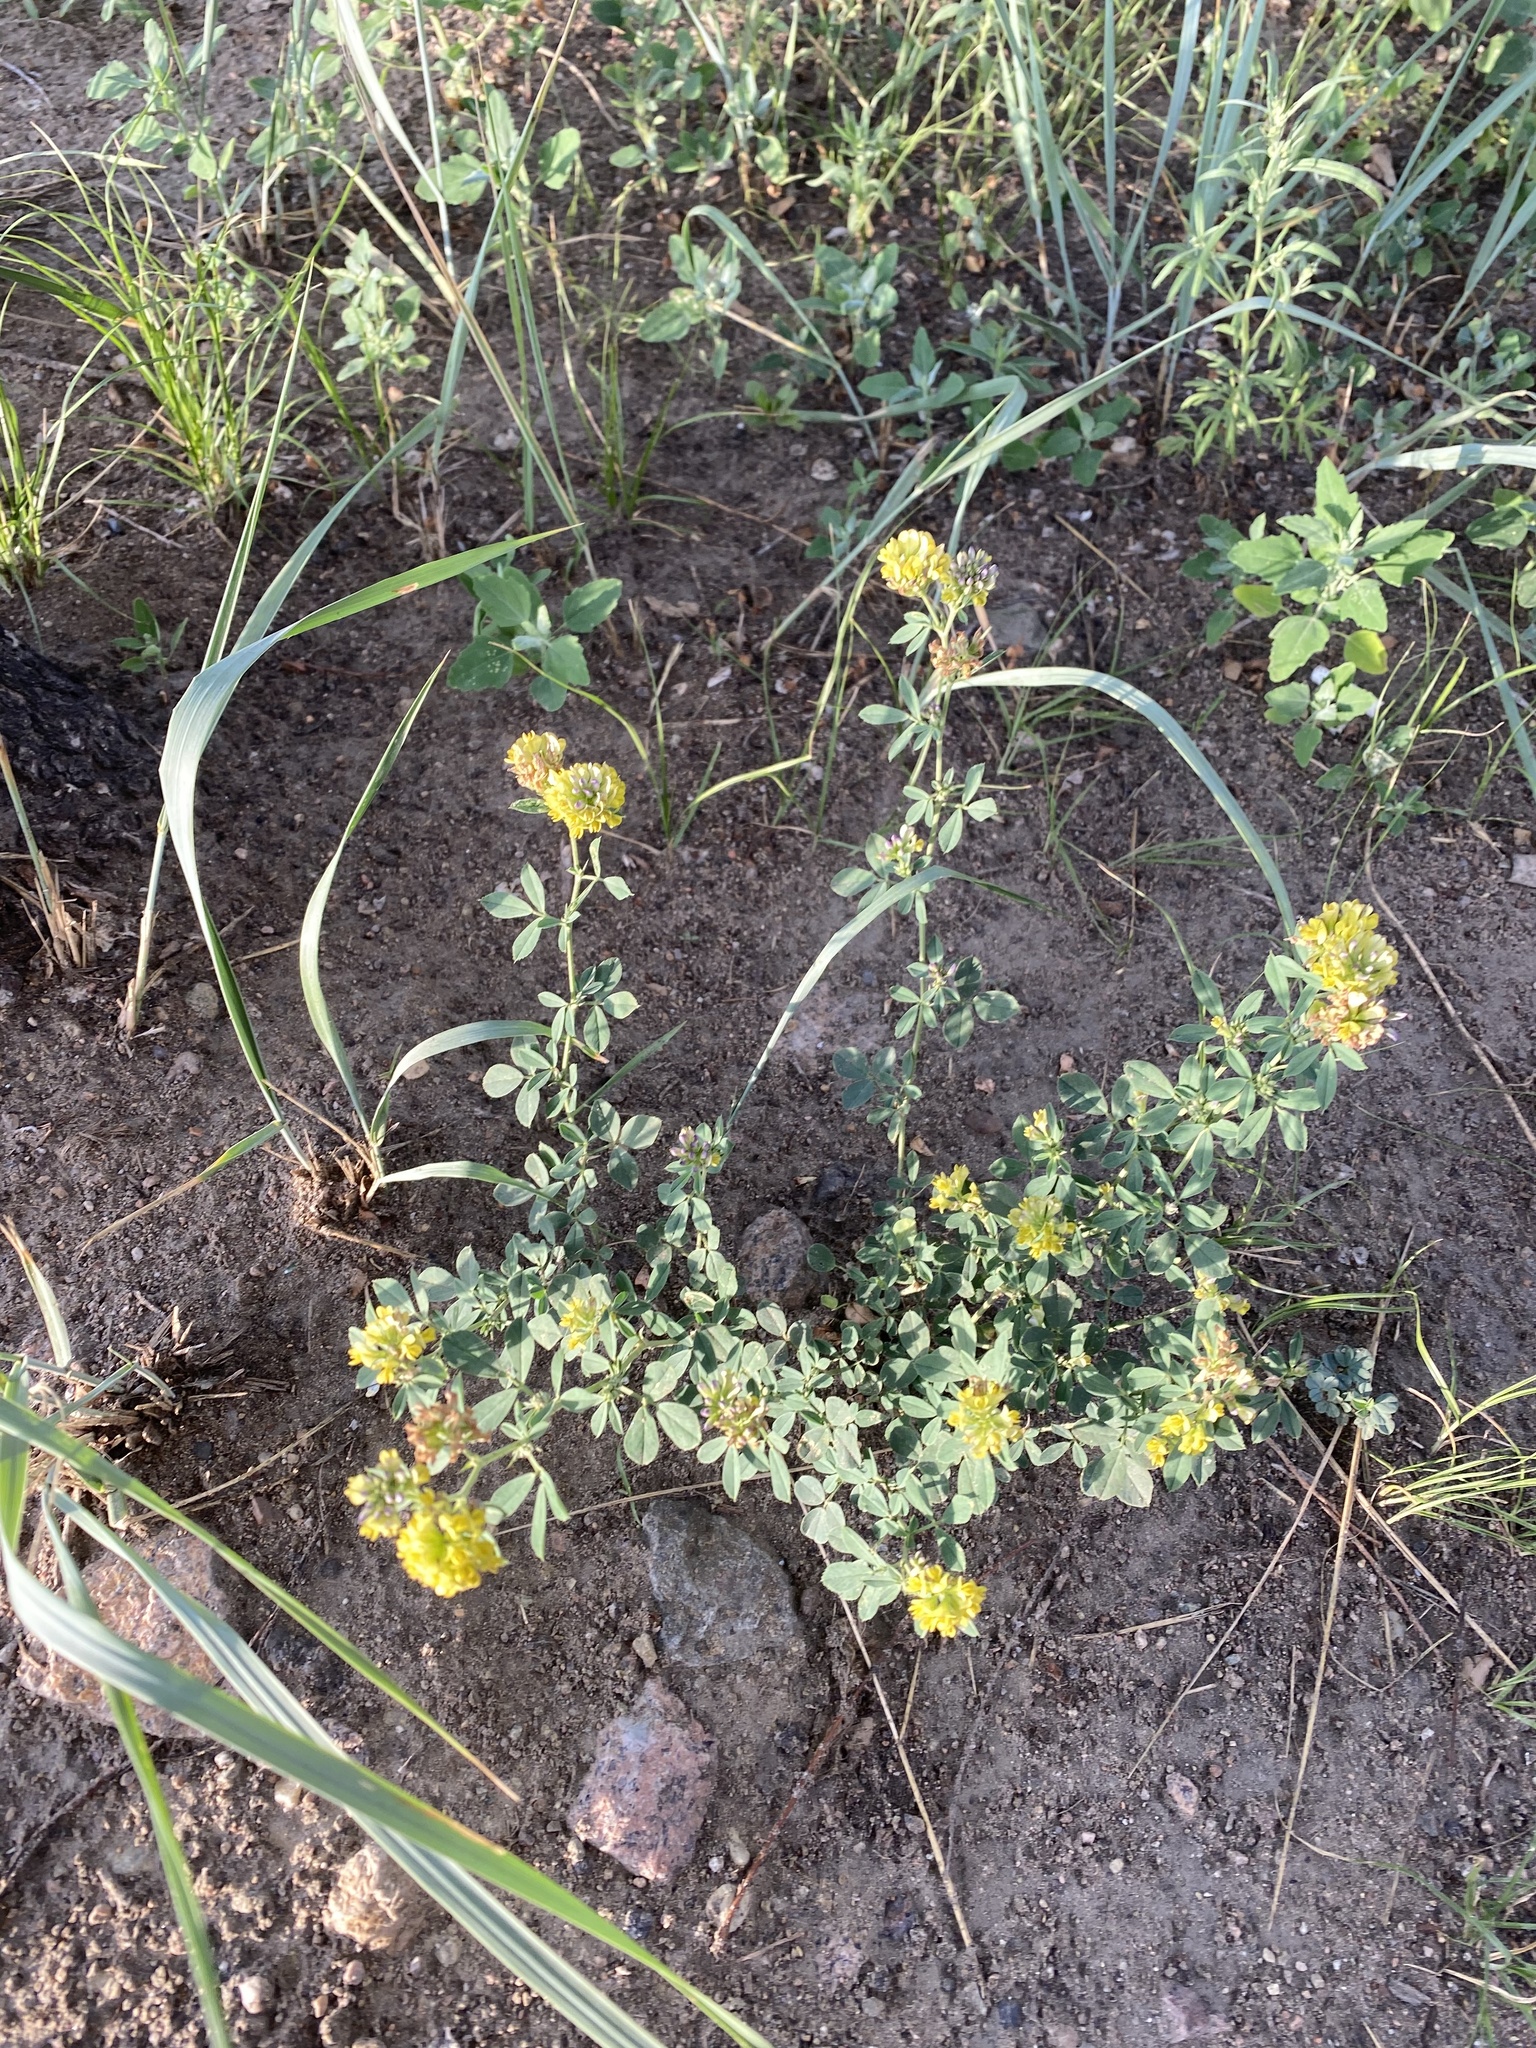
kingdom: Plantae
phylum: Tracheophyta
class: Magnoliopsida
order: Fabales
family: Fabaceae
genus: Medicago
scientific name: Medicago falcata
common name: Sickle medick
